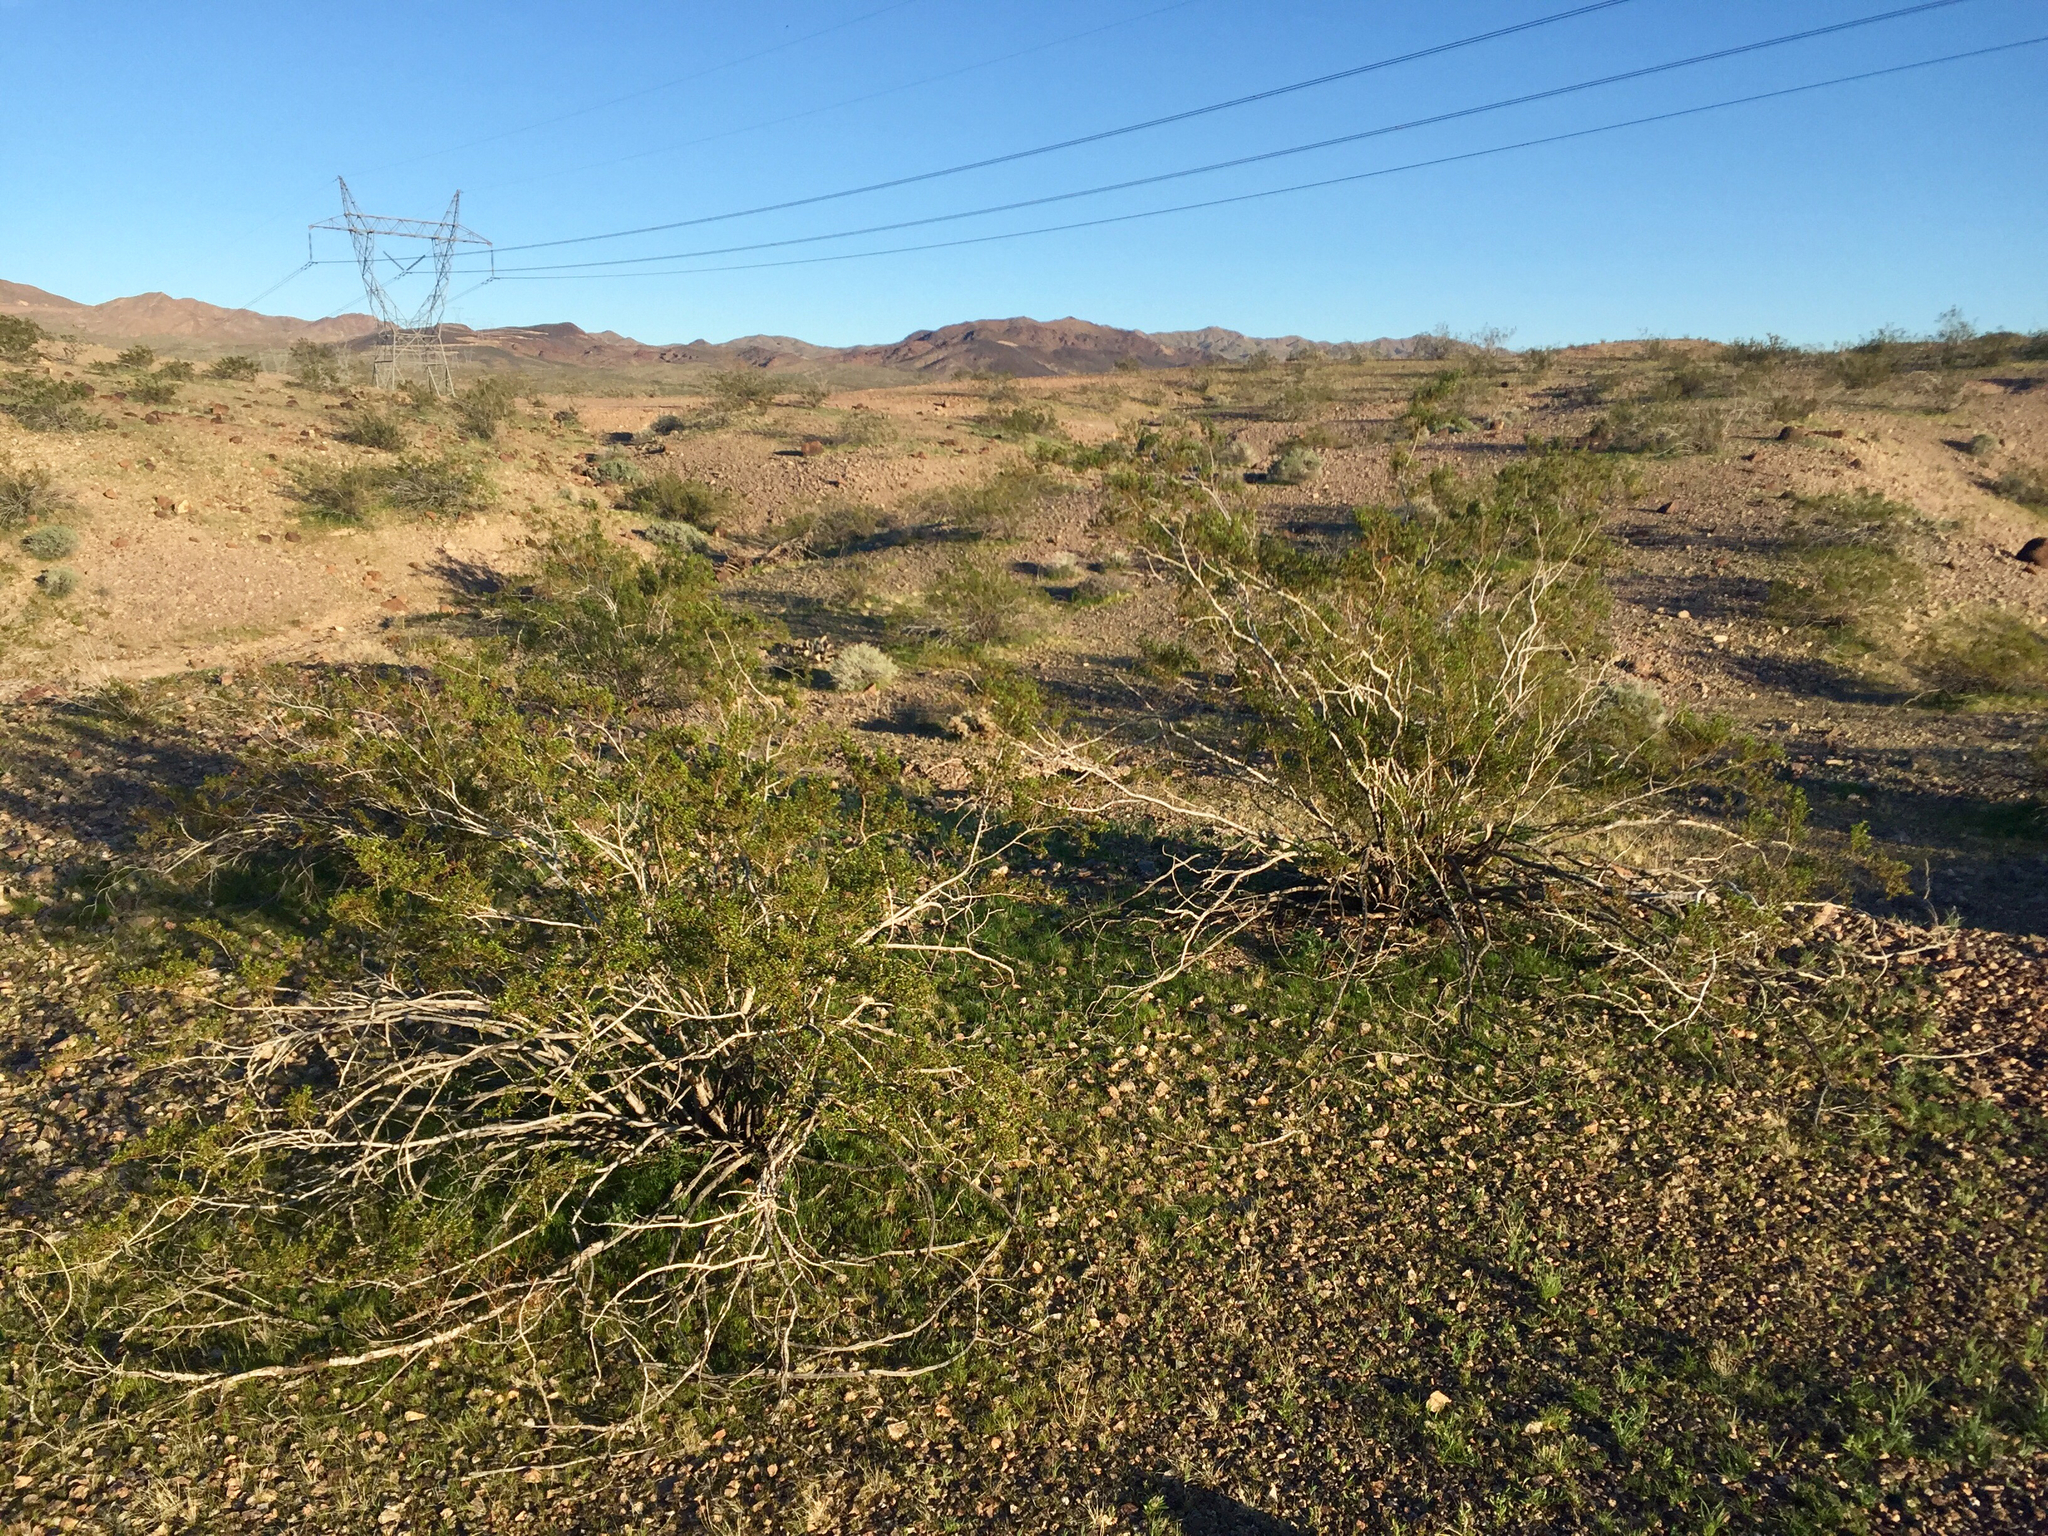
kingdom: Plantae
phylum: Tracheophyta
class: Magnoliopsida
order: Zygophyllales
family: Zygophyllaceae
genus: Larrea
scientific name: Larrea tridentata
